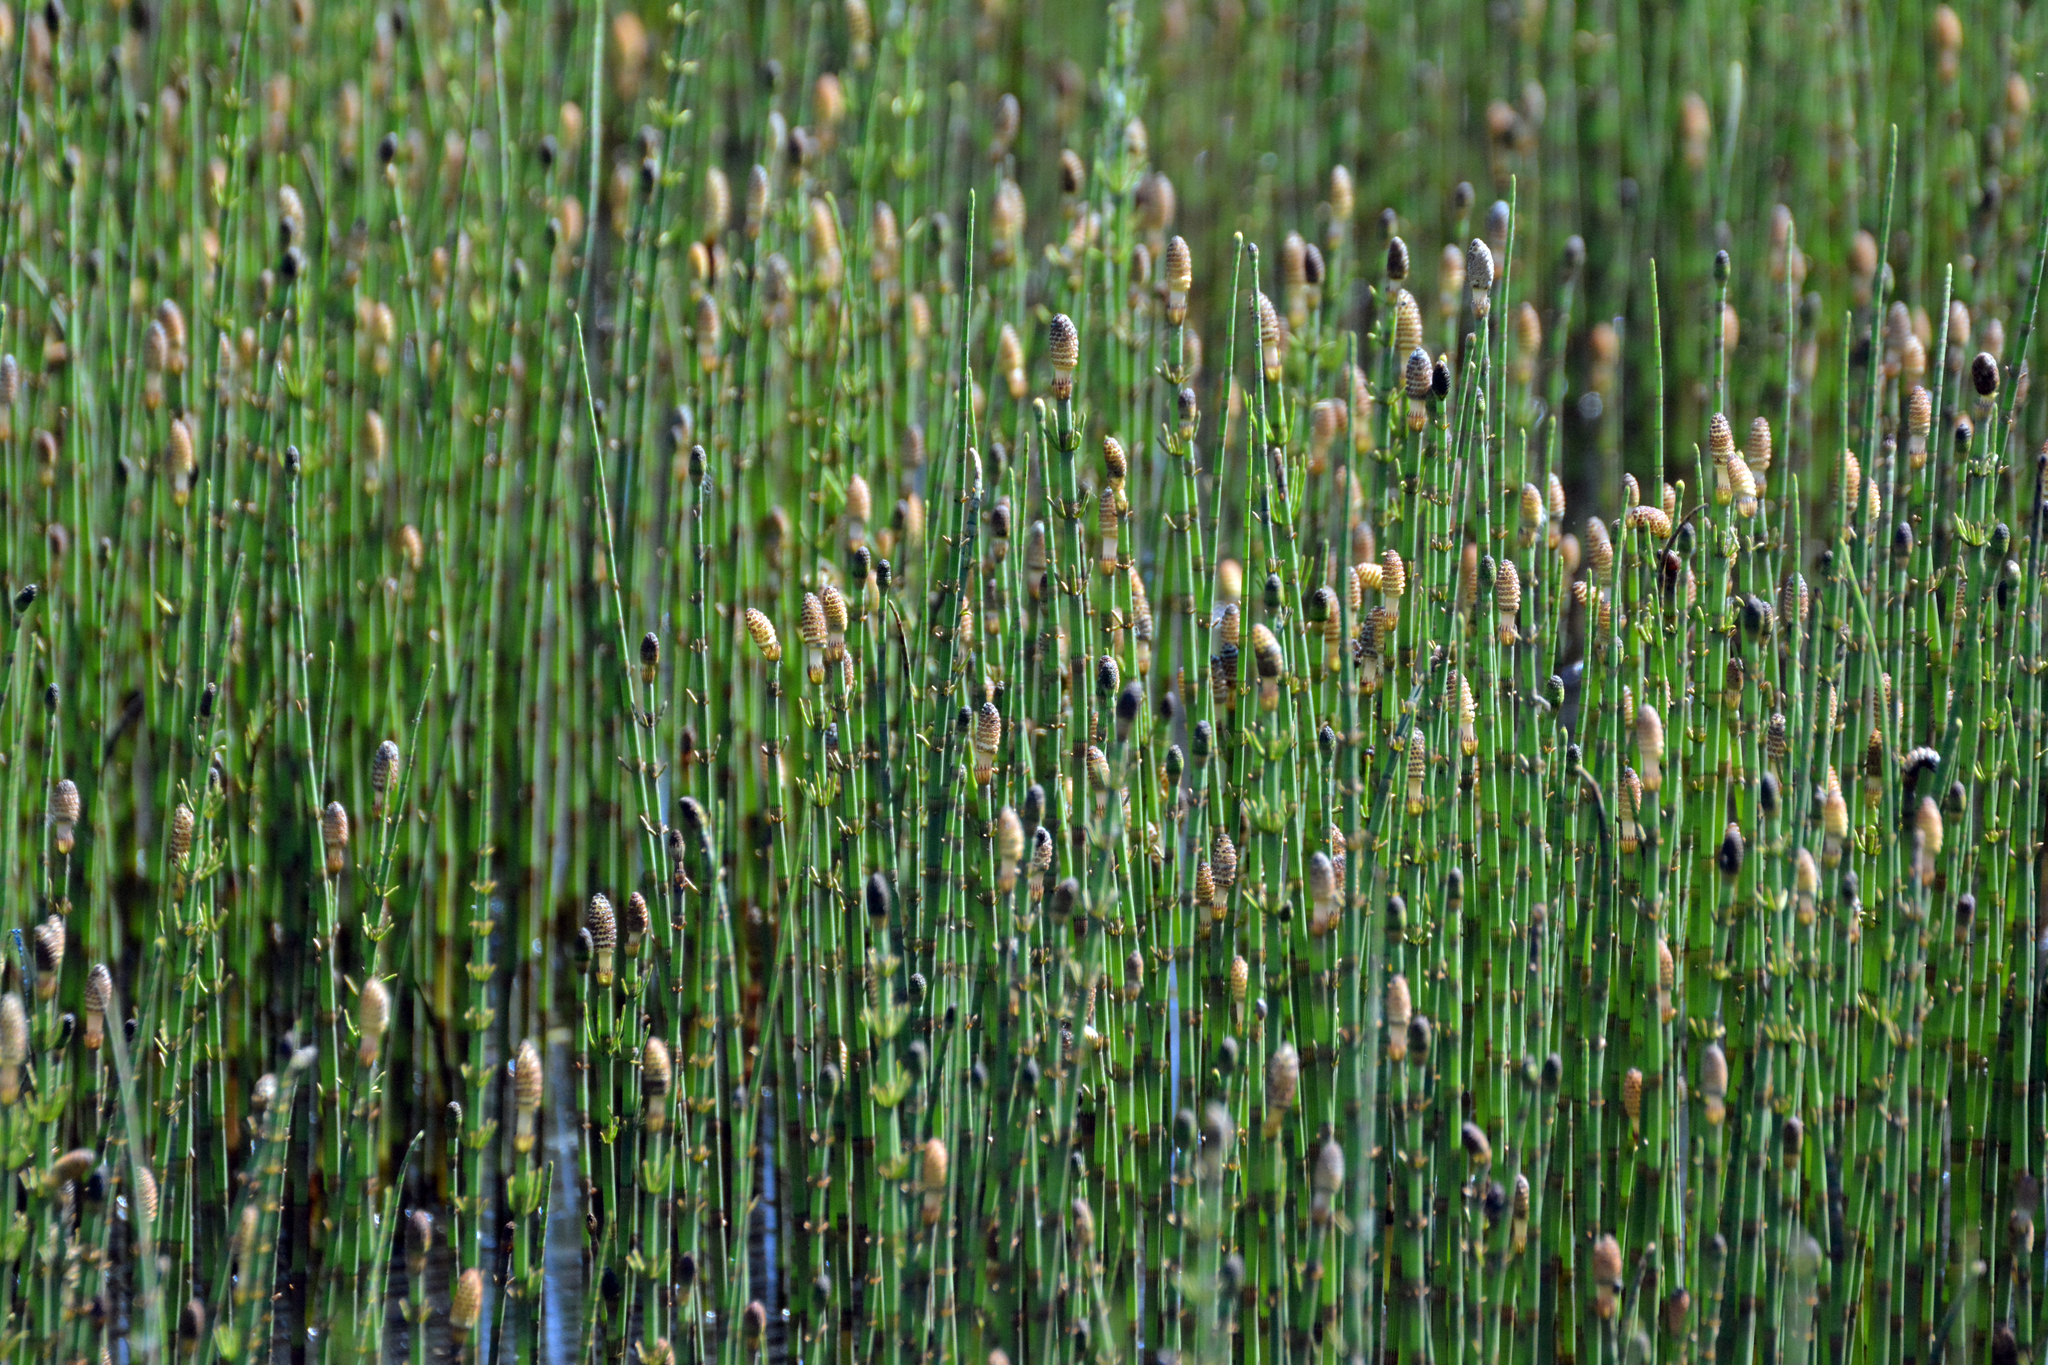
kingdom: Plantae
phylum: Tracheophyta
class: Polypodiopsida
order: Equisetales
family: Equisetaceae
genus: Equisetum
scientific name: Equisetum fluviatile
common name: Water horsetail
